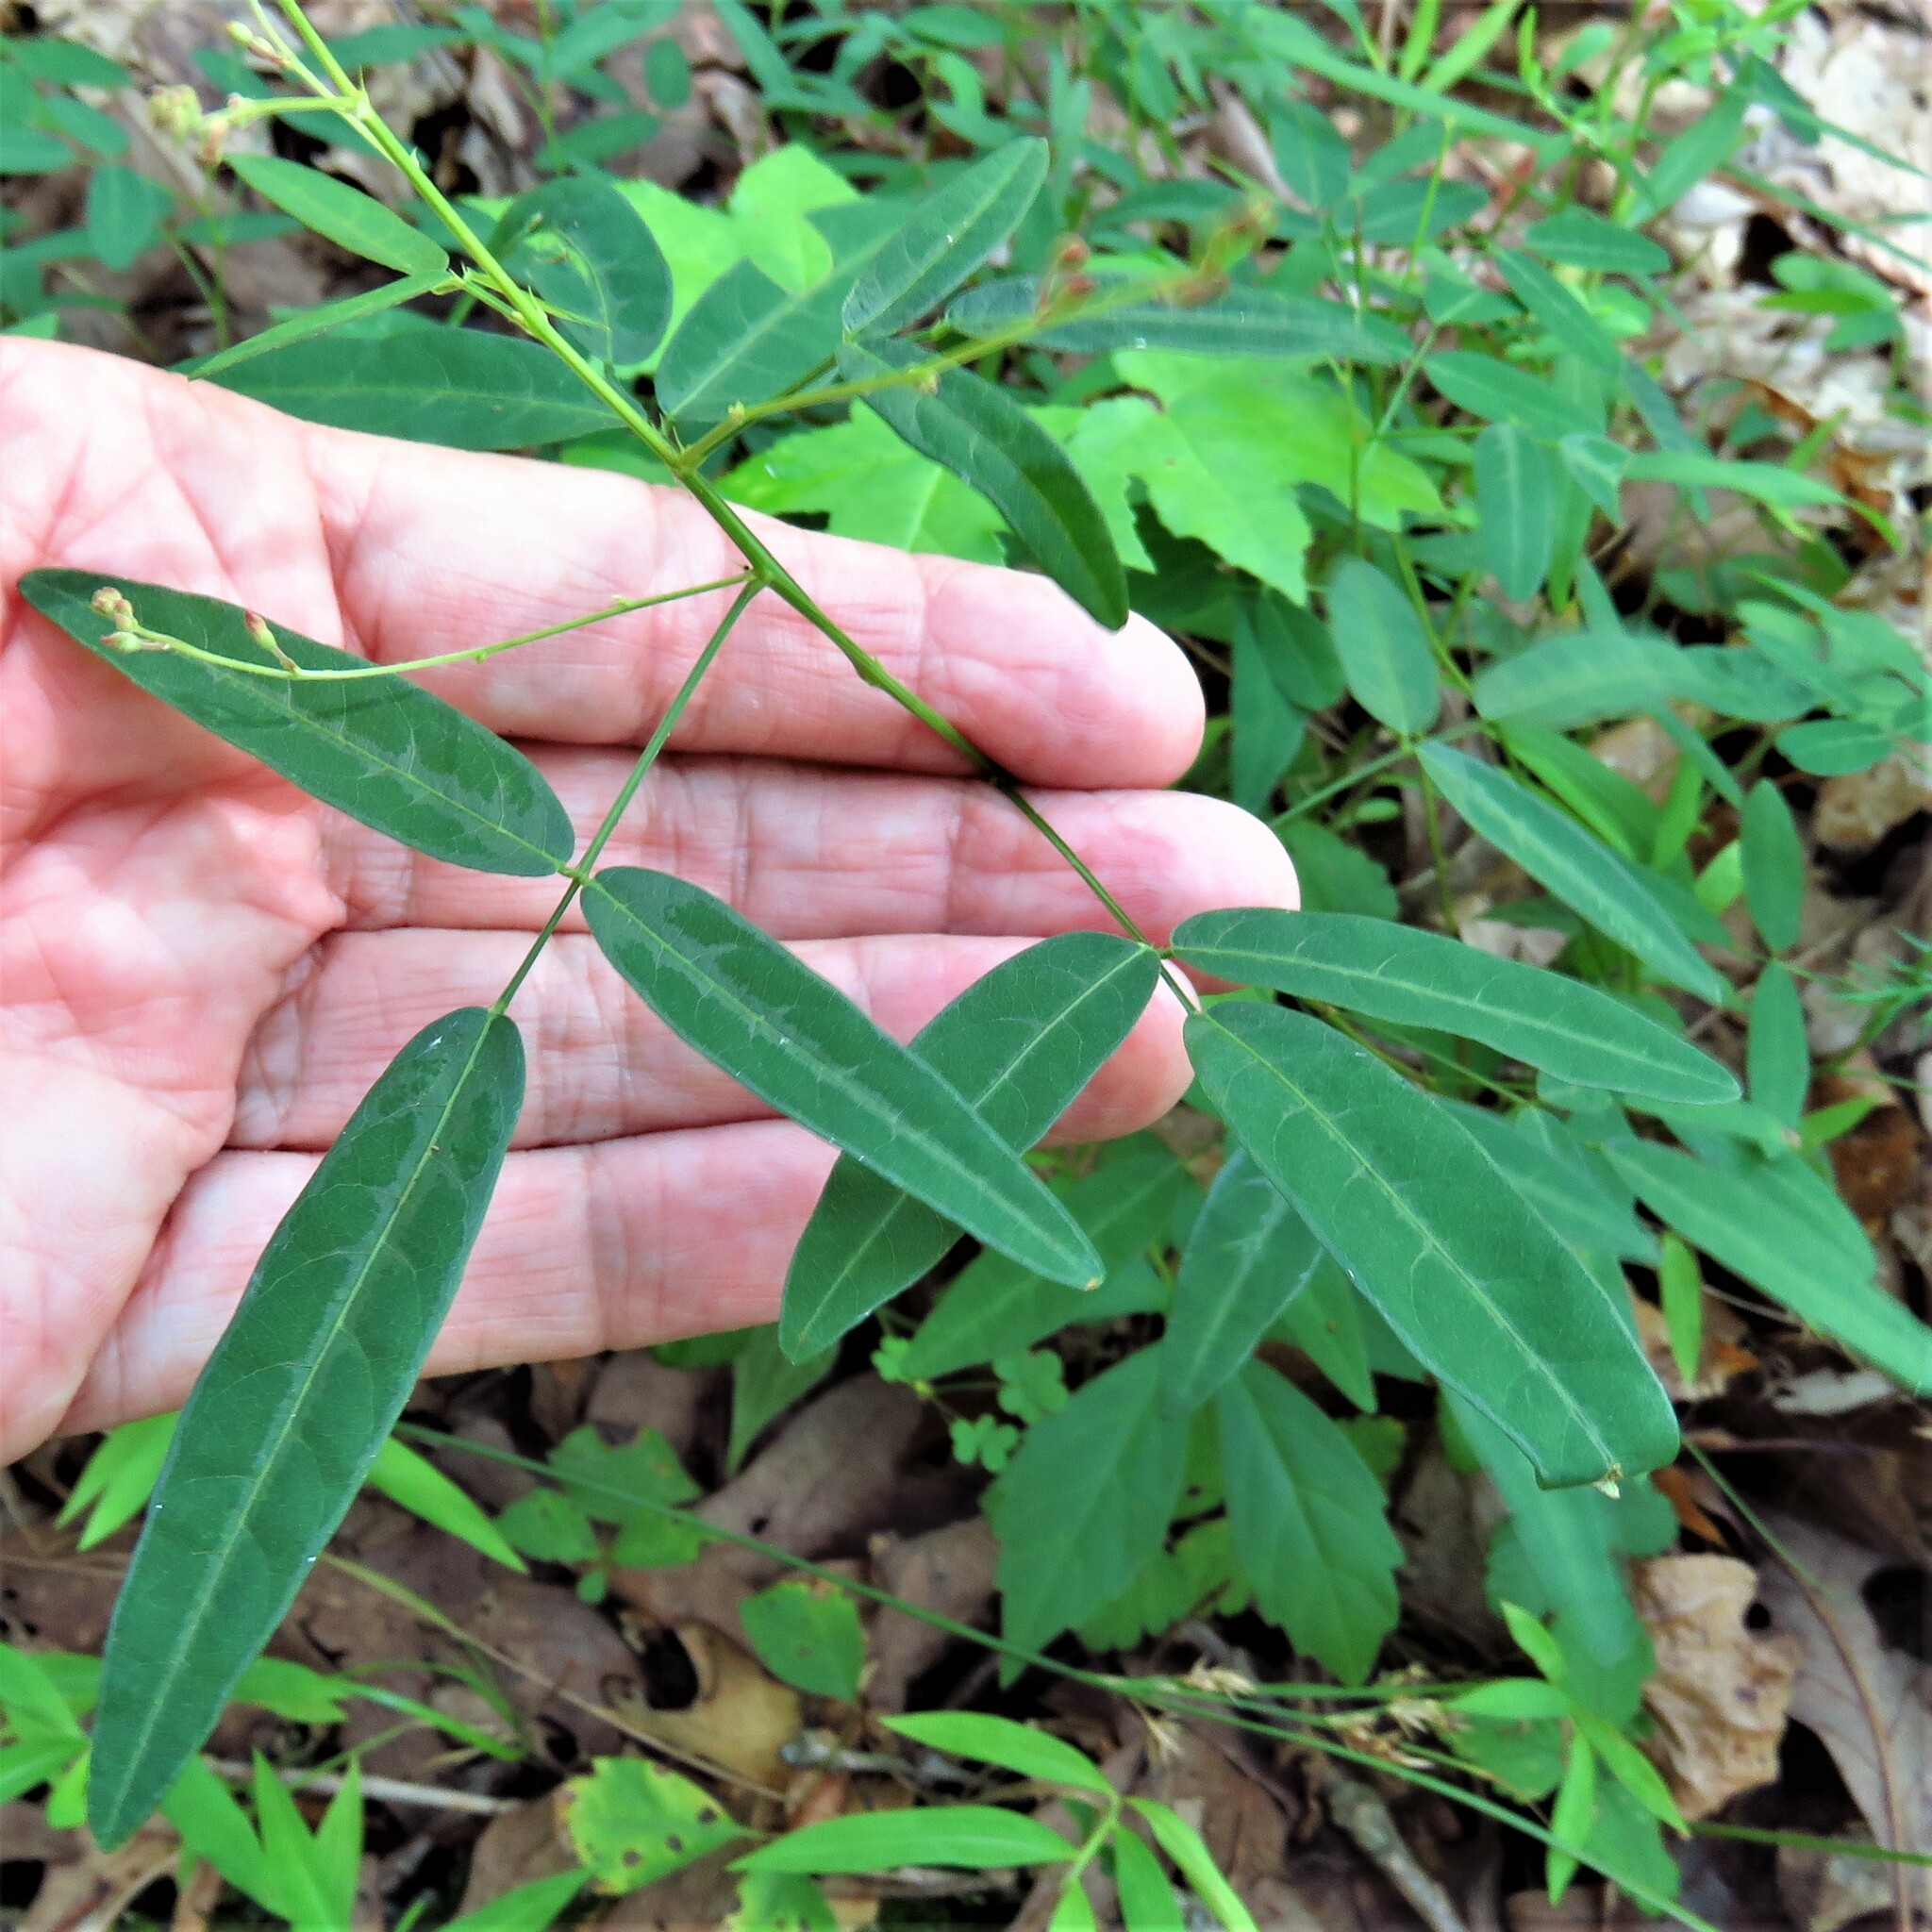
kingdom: Plantae
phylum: Tracheophyta
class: Magnoliopsida
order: Fabales
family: Fabaceae
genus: Desmodium
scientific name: Desmodium paniculatum
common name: Panicled tick-clover
